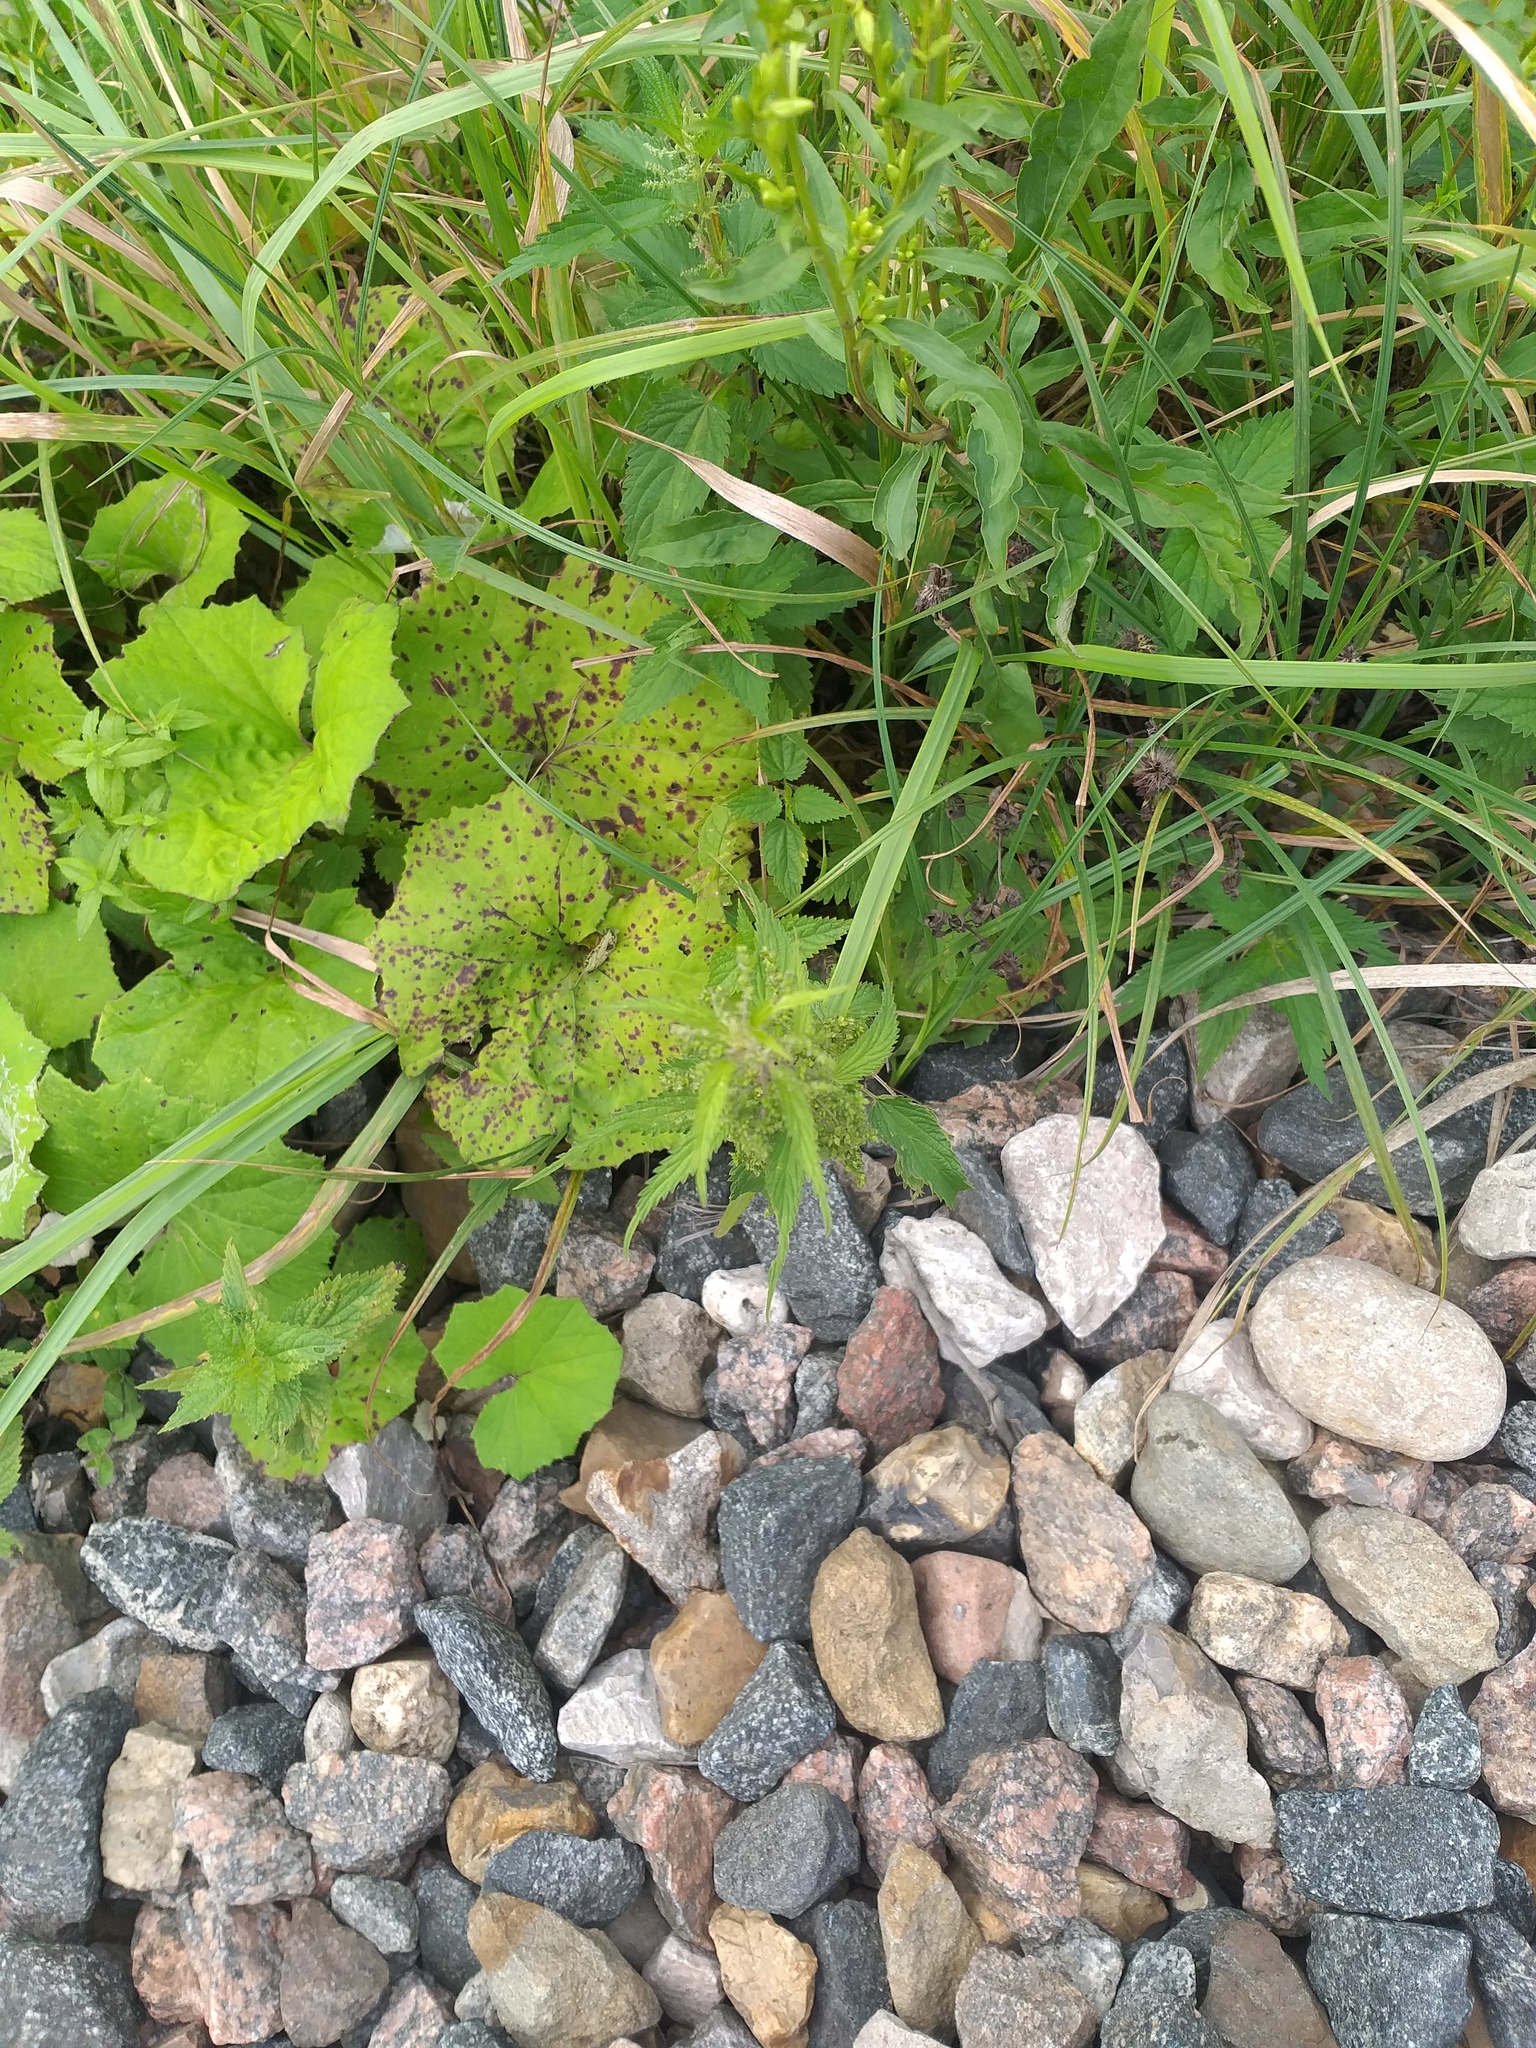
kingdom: Plantae
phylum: Tracheophyta
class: Magnoliopsida
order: Asterales
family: Asteraceae
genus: Tussilago
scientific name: Tussilago farfara
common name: Coltsfoot
